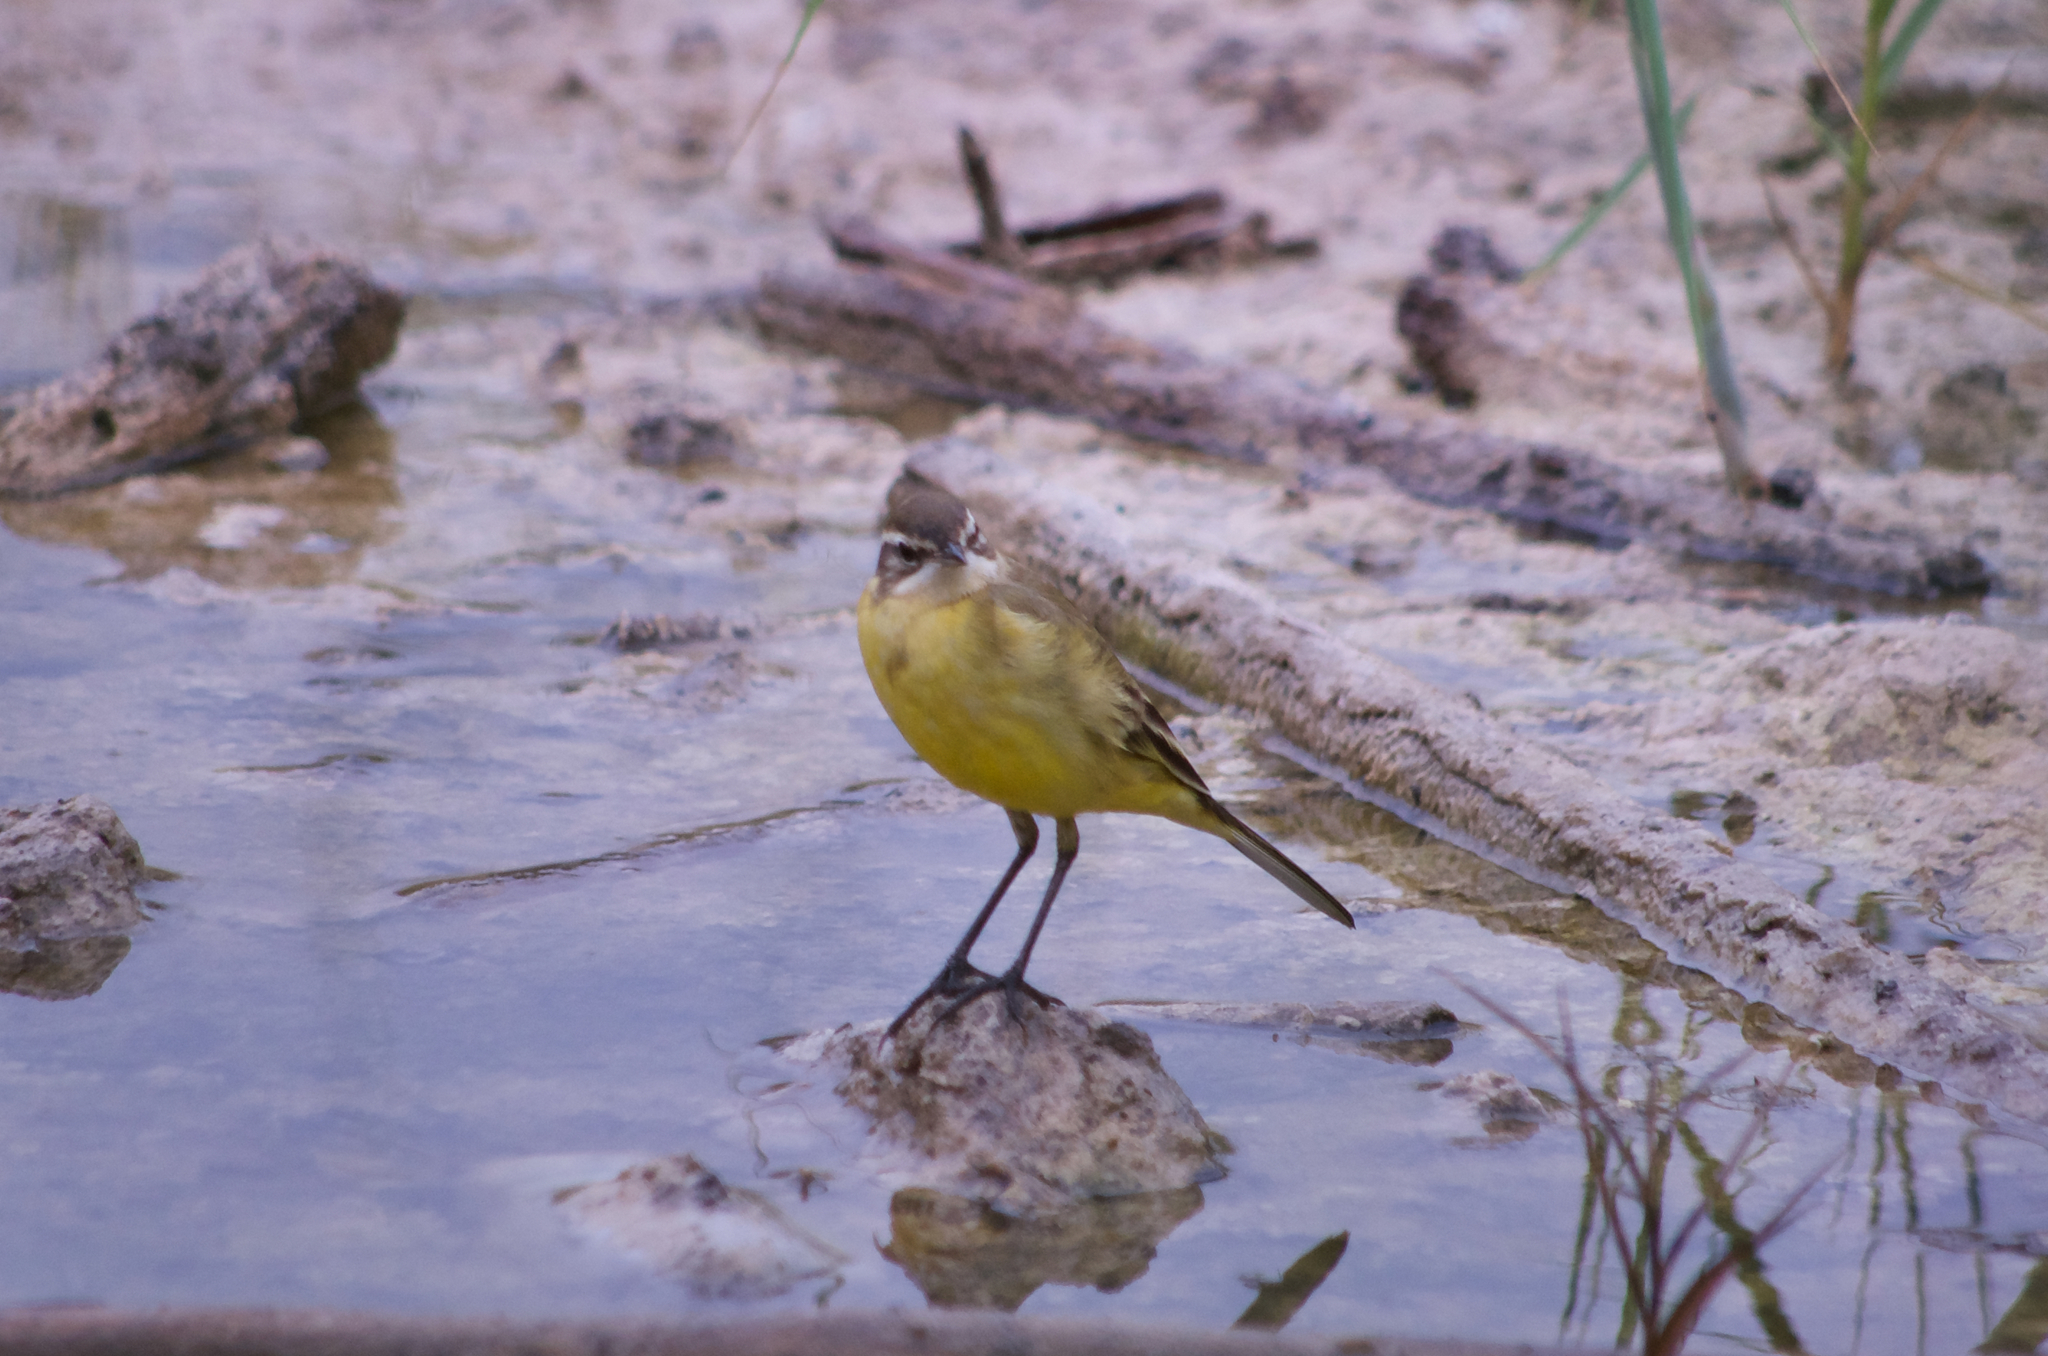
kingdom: Animalia
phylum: Chordata
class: Aves
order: Passeriformes
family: Motacillidae
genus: Motacilla
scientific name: Motacilla flava
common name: Western yellow wagtail
